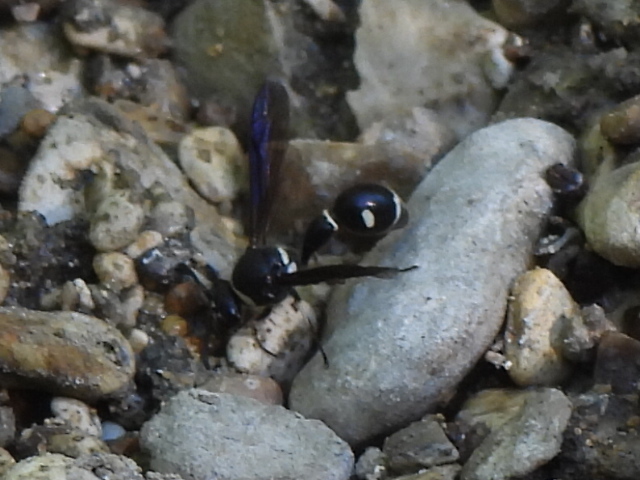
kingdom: Animalia
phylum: Arthropoda
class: Insecta
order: Hymenoptera
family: Vespidae
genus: Eumenes
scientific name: Eumenes fraternus
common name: Fraternal potter wasp
